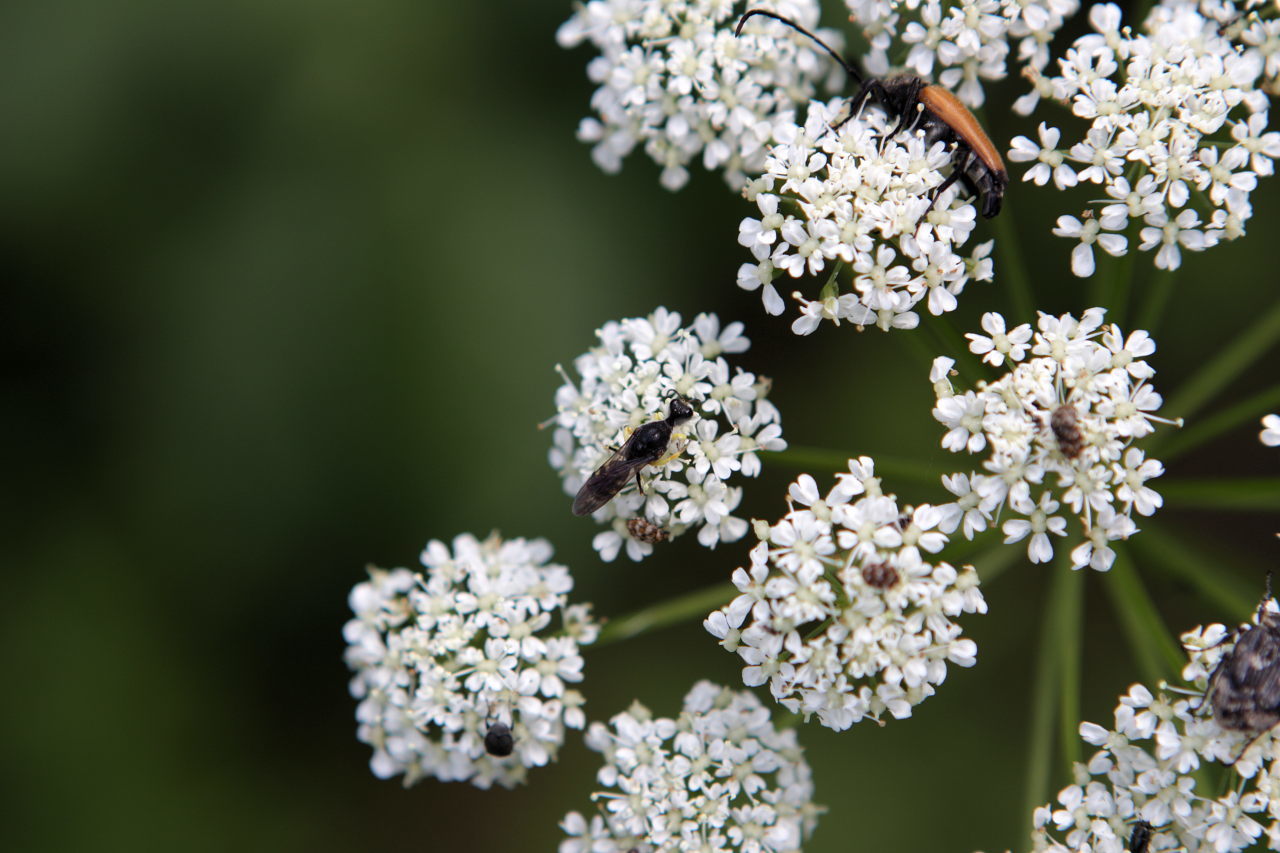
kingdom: Animalia
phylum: Arthropoda
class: Insecta
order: Hymenoptera
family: Crabronidae
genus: Lestica
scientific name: Lestica clypeata
